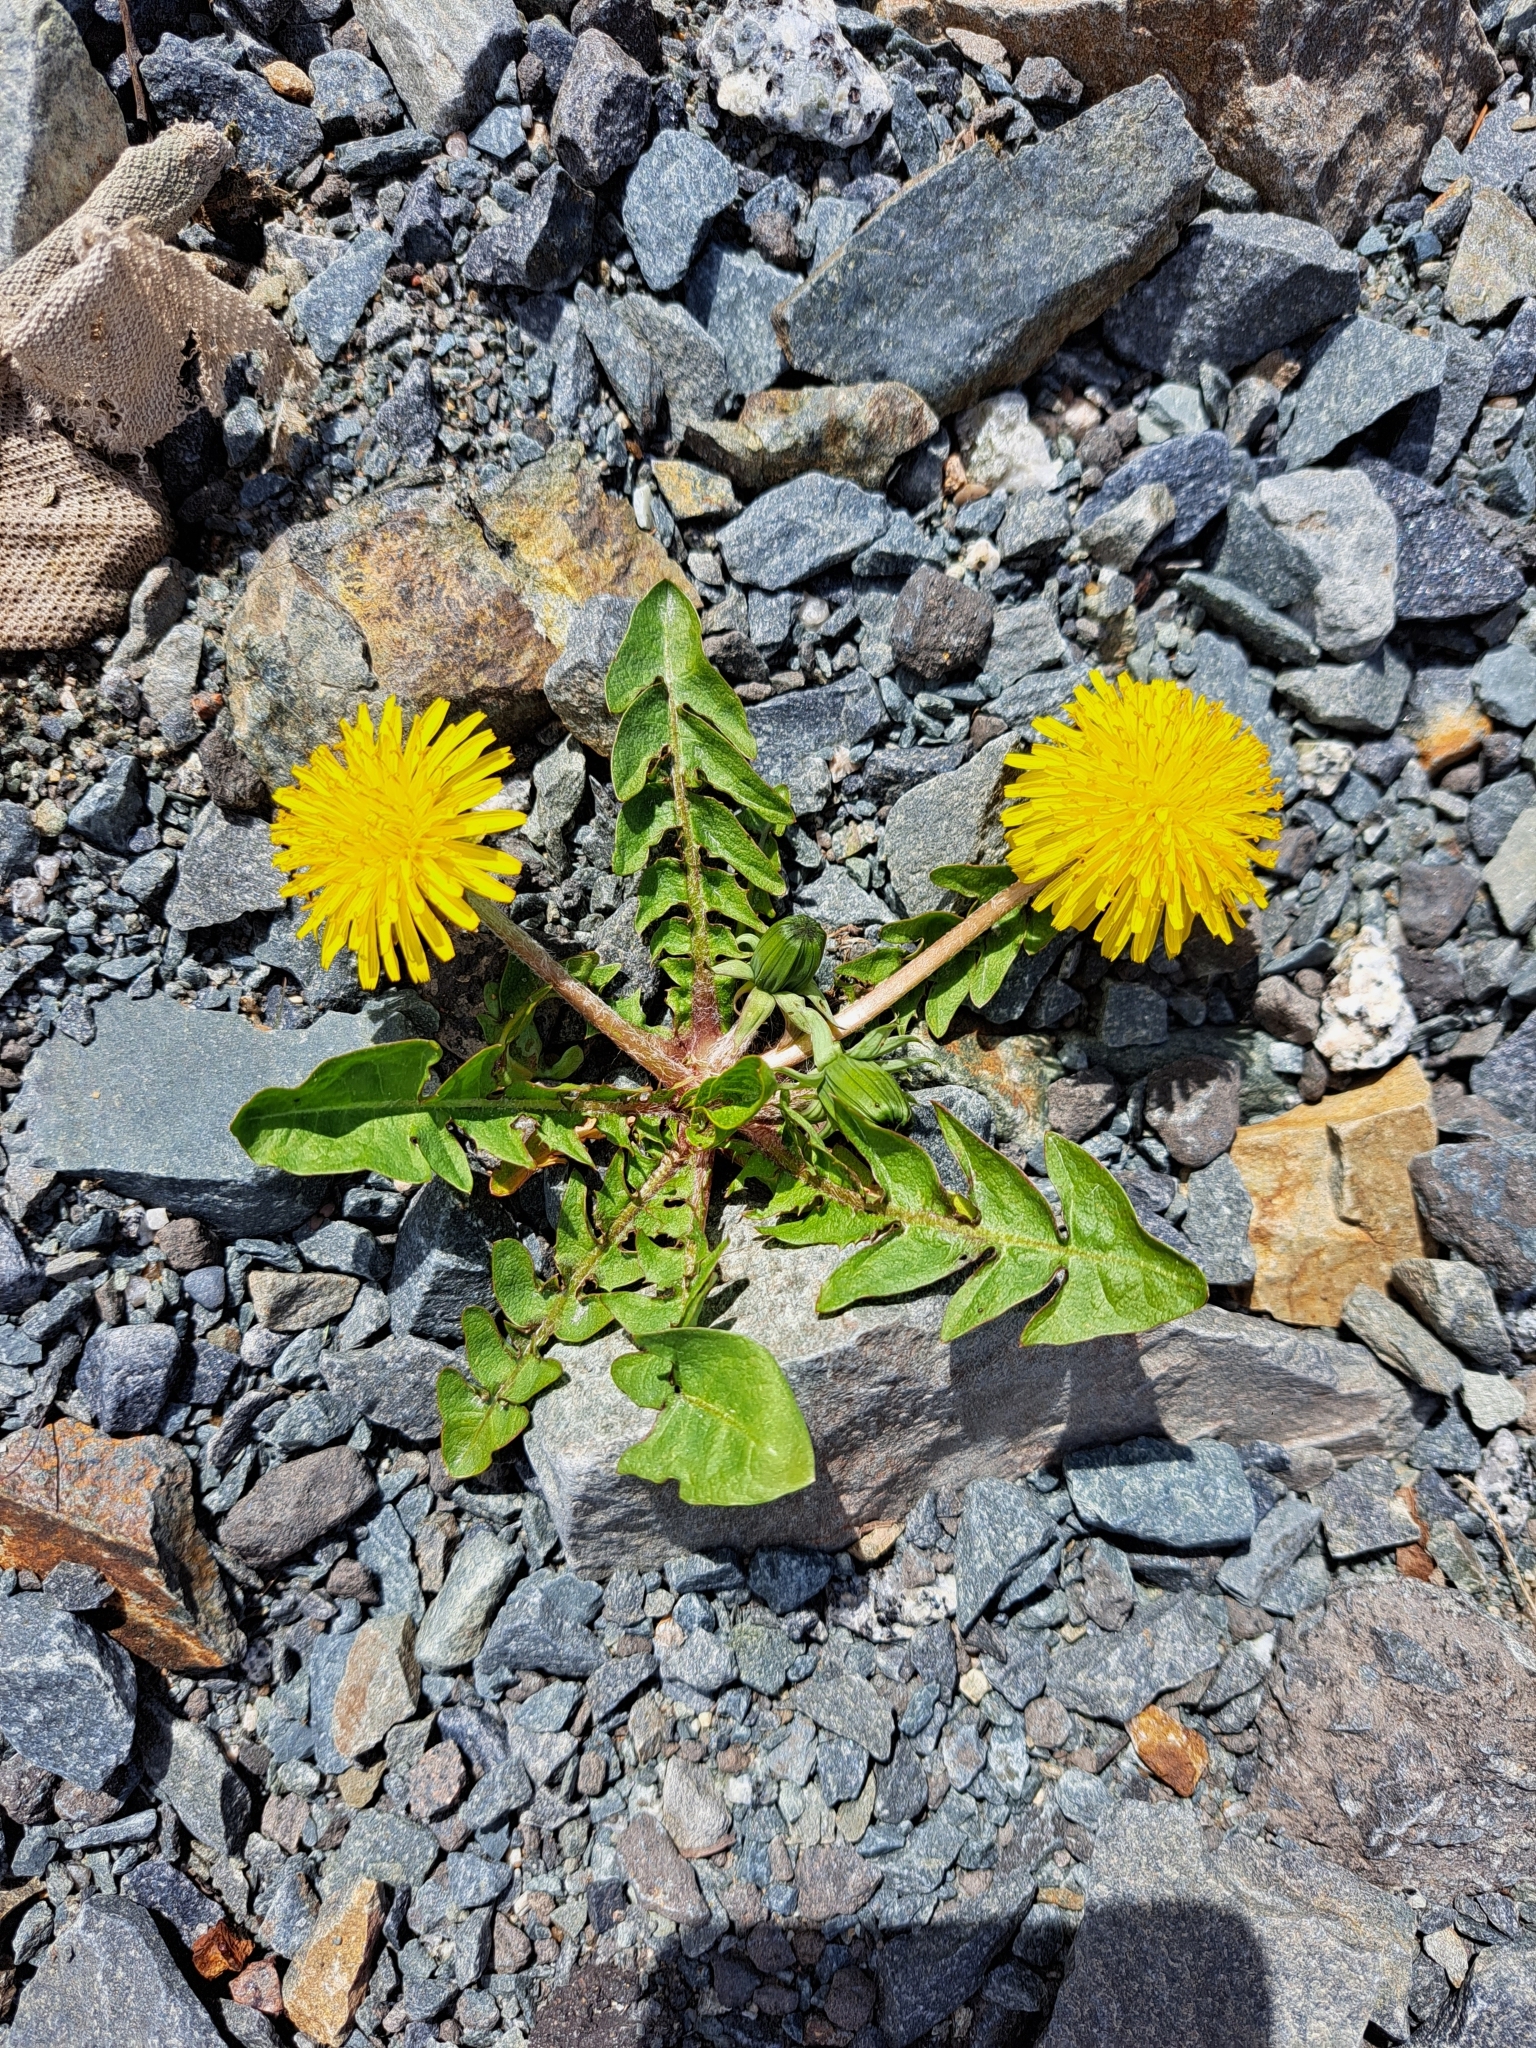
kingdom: Plantae
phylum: Tracheophyta
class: Magnoliopsida
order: Asterales
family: Asteraceae
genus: Taraxacum
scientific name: Taraxacum officinale
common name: Common dandelion
